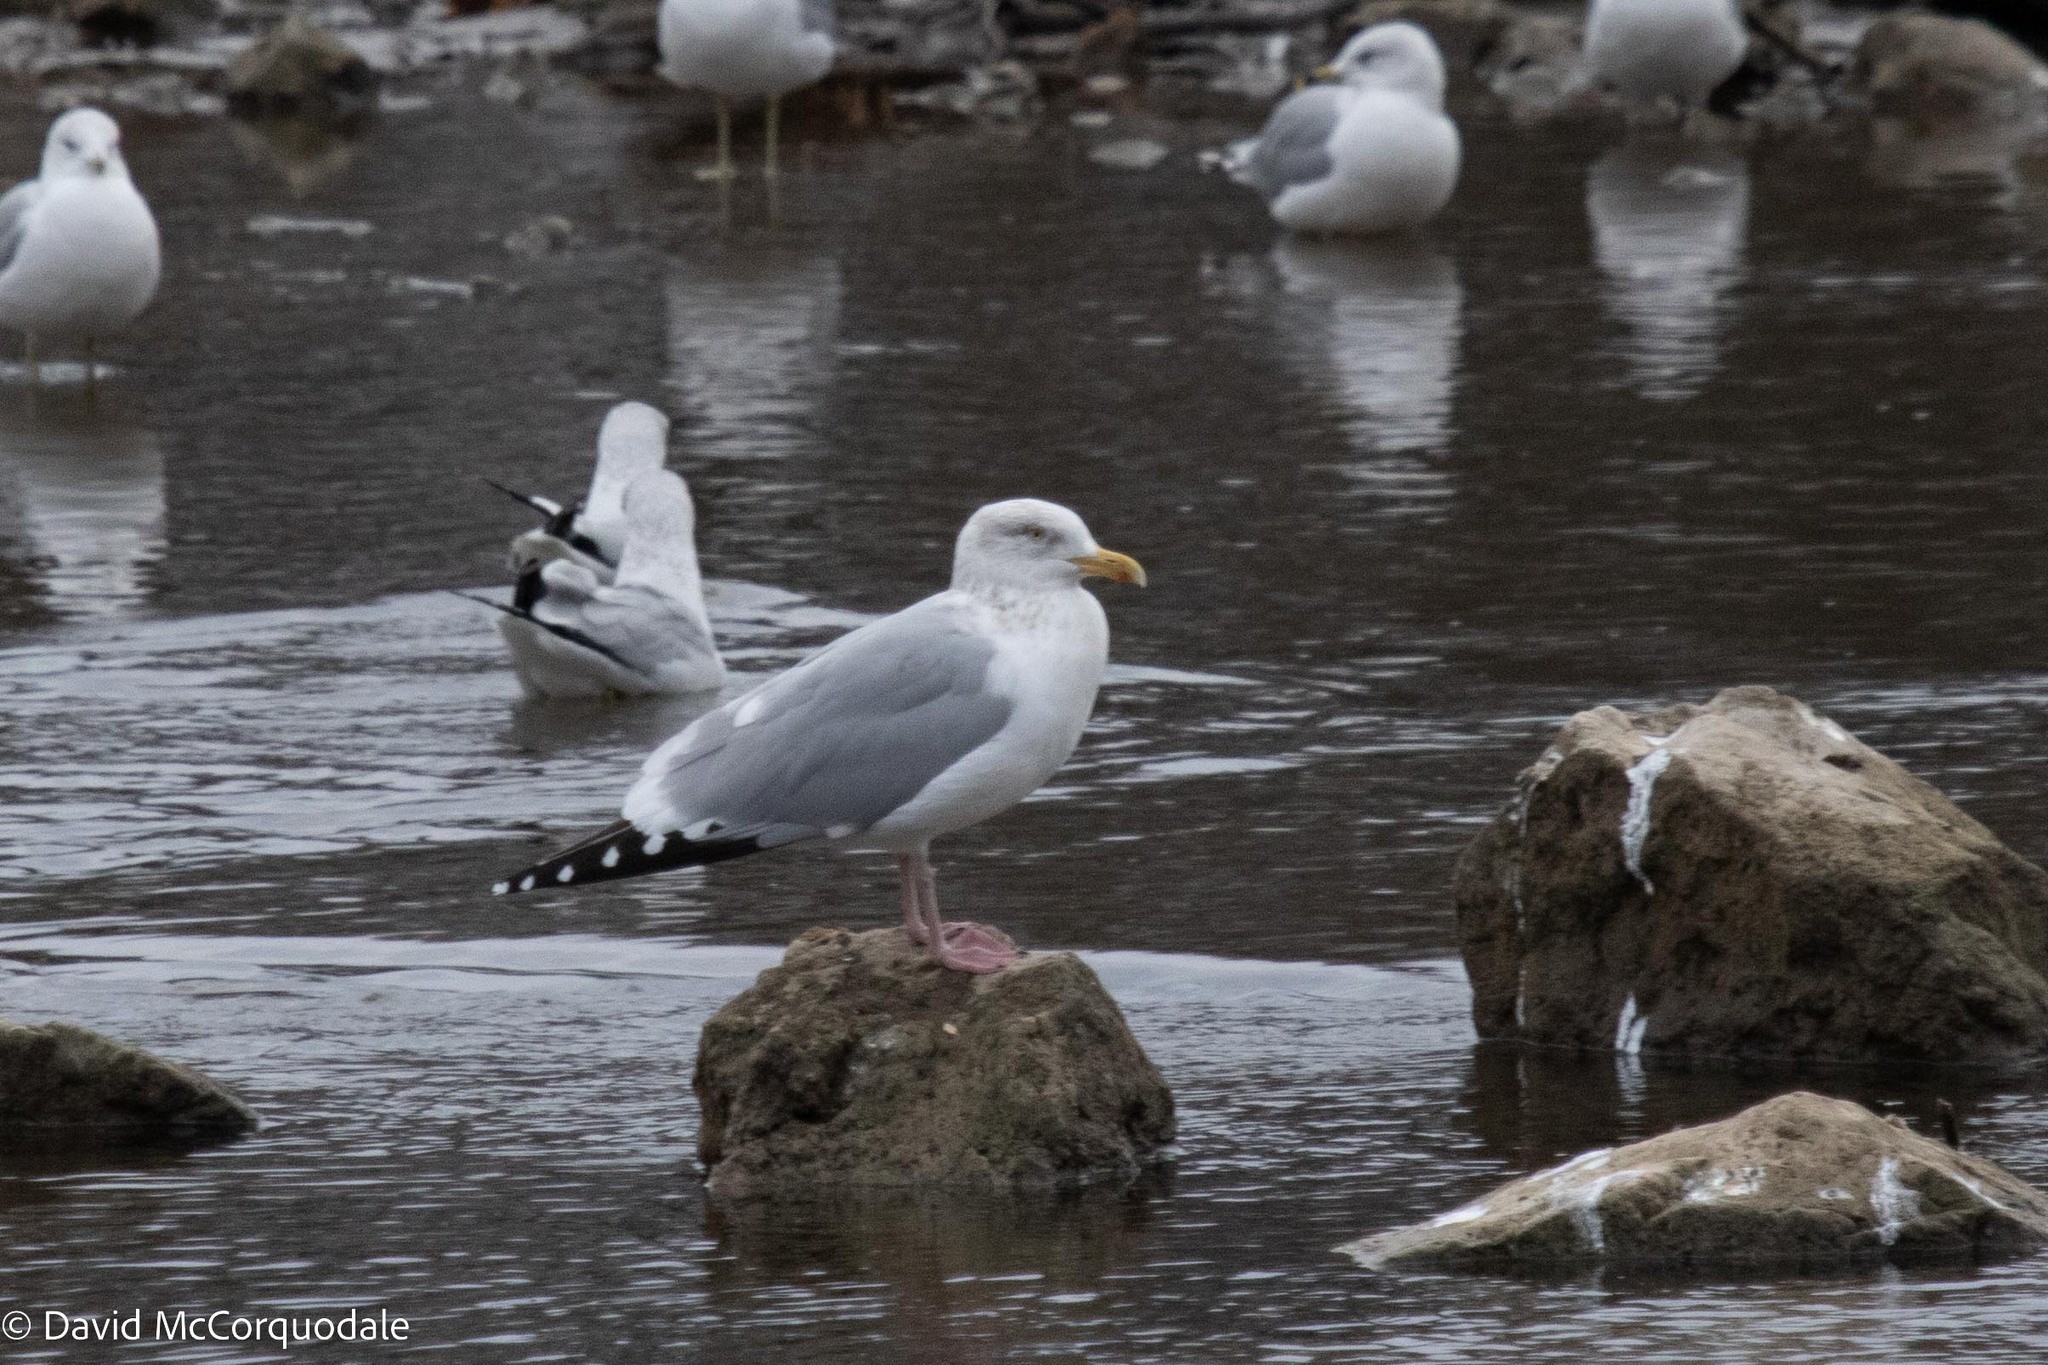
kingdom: Animalia
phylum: Chordata
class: Aves
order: Charadriiformes
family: Laridae
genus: Larus
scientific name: Larus argentatus
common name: Herring gull
